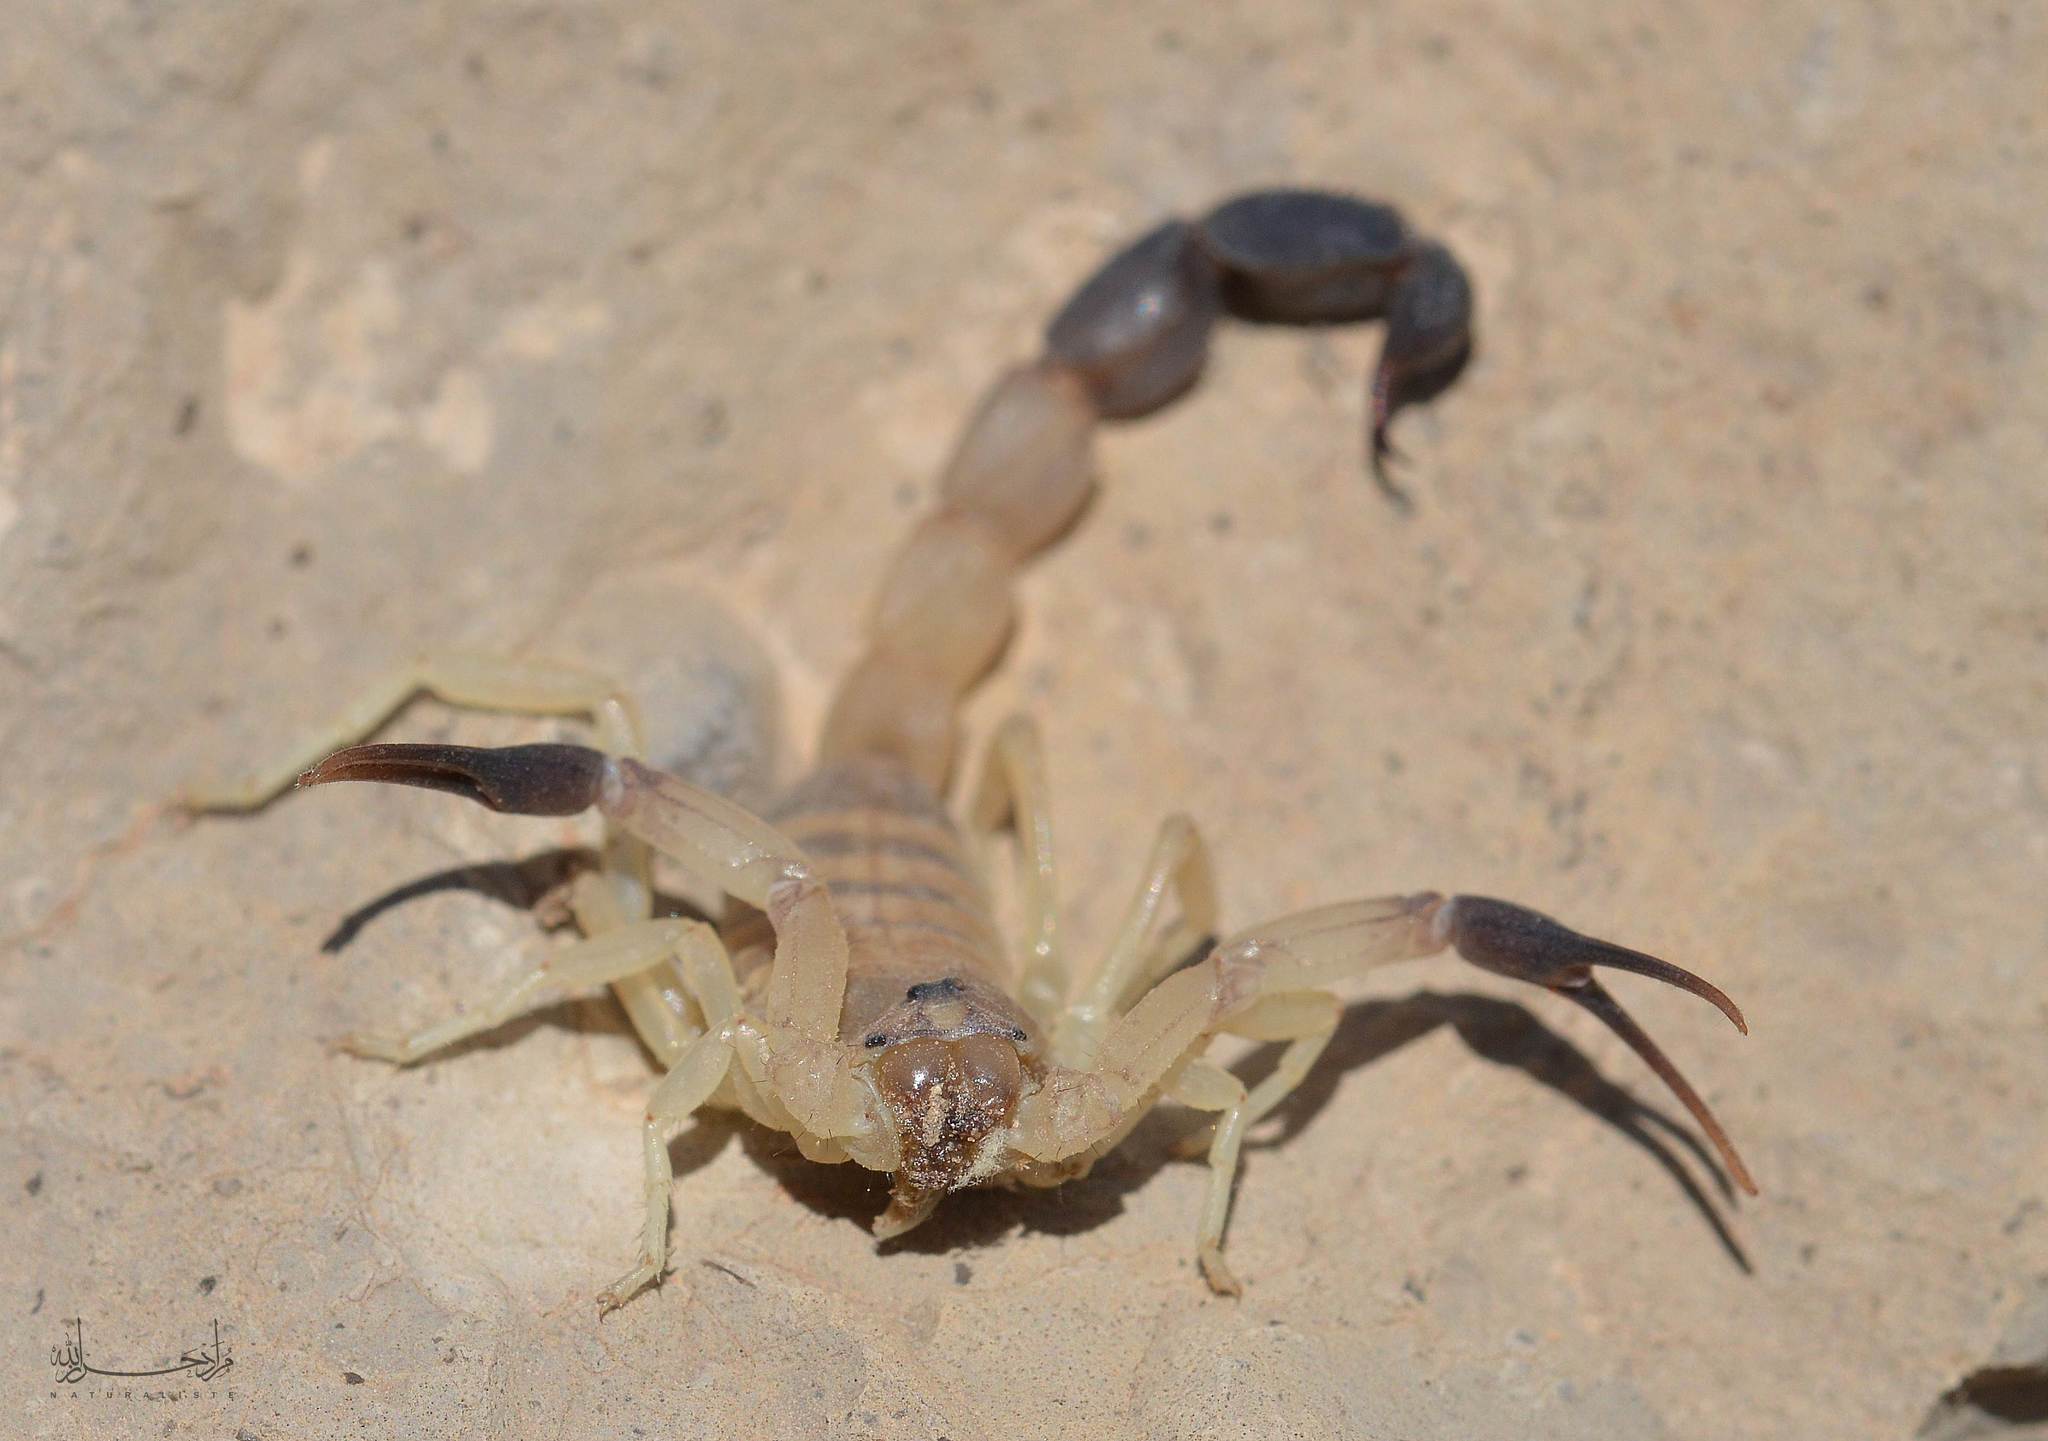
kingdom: Animalia
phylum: Arthropoda
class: Arachnida
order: Scorpiones
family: Buthidae
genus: Androctonus
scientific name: Androctonus australis
